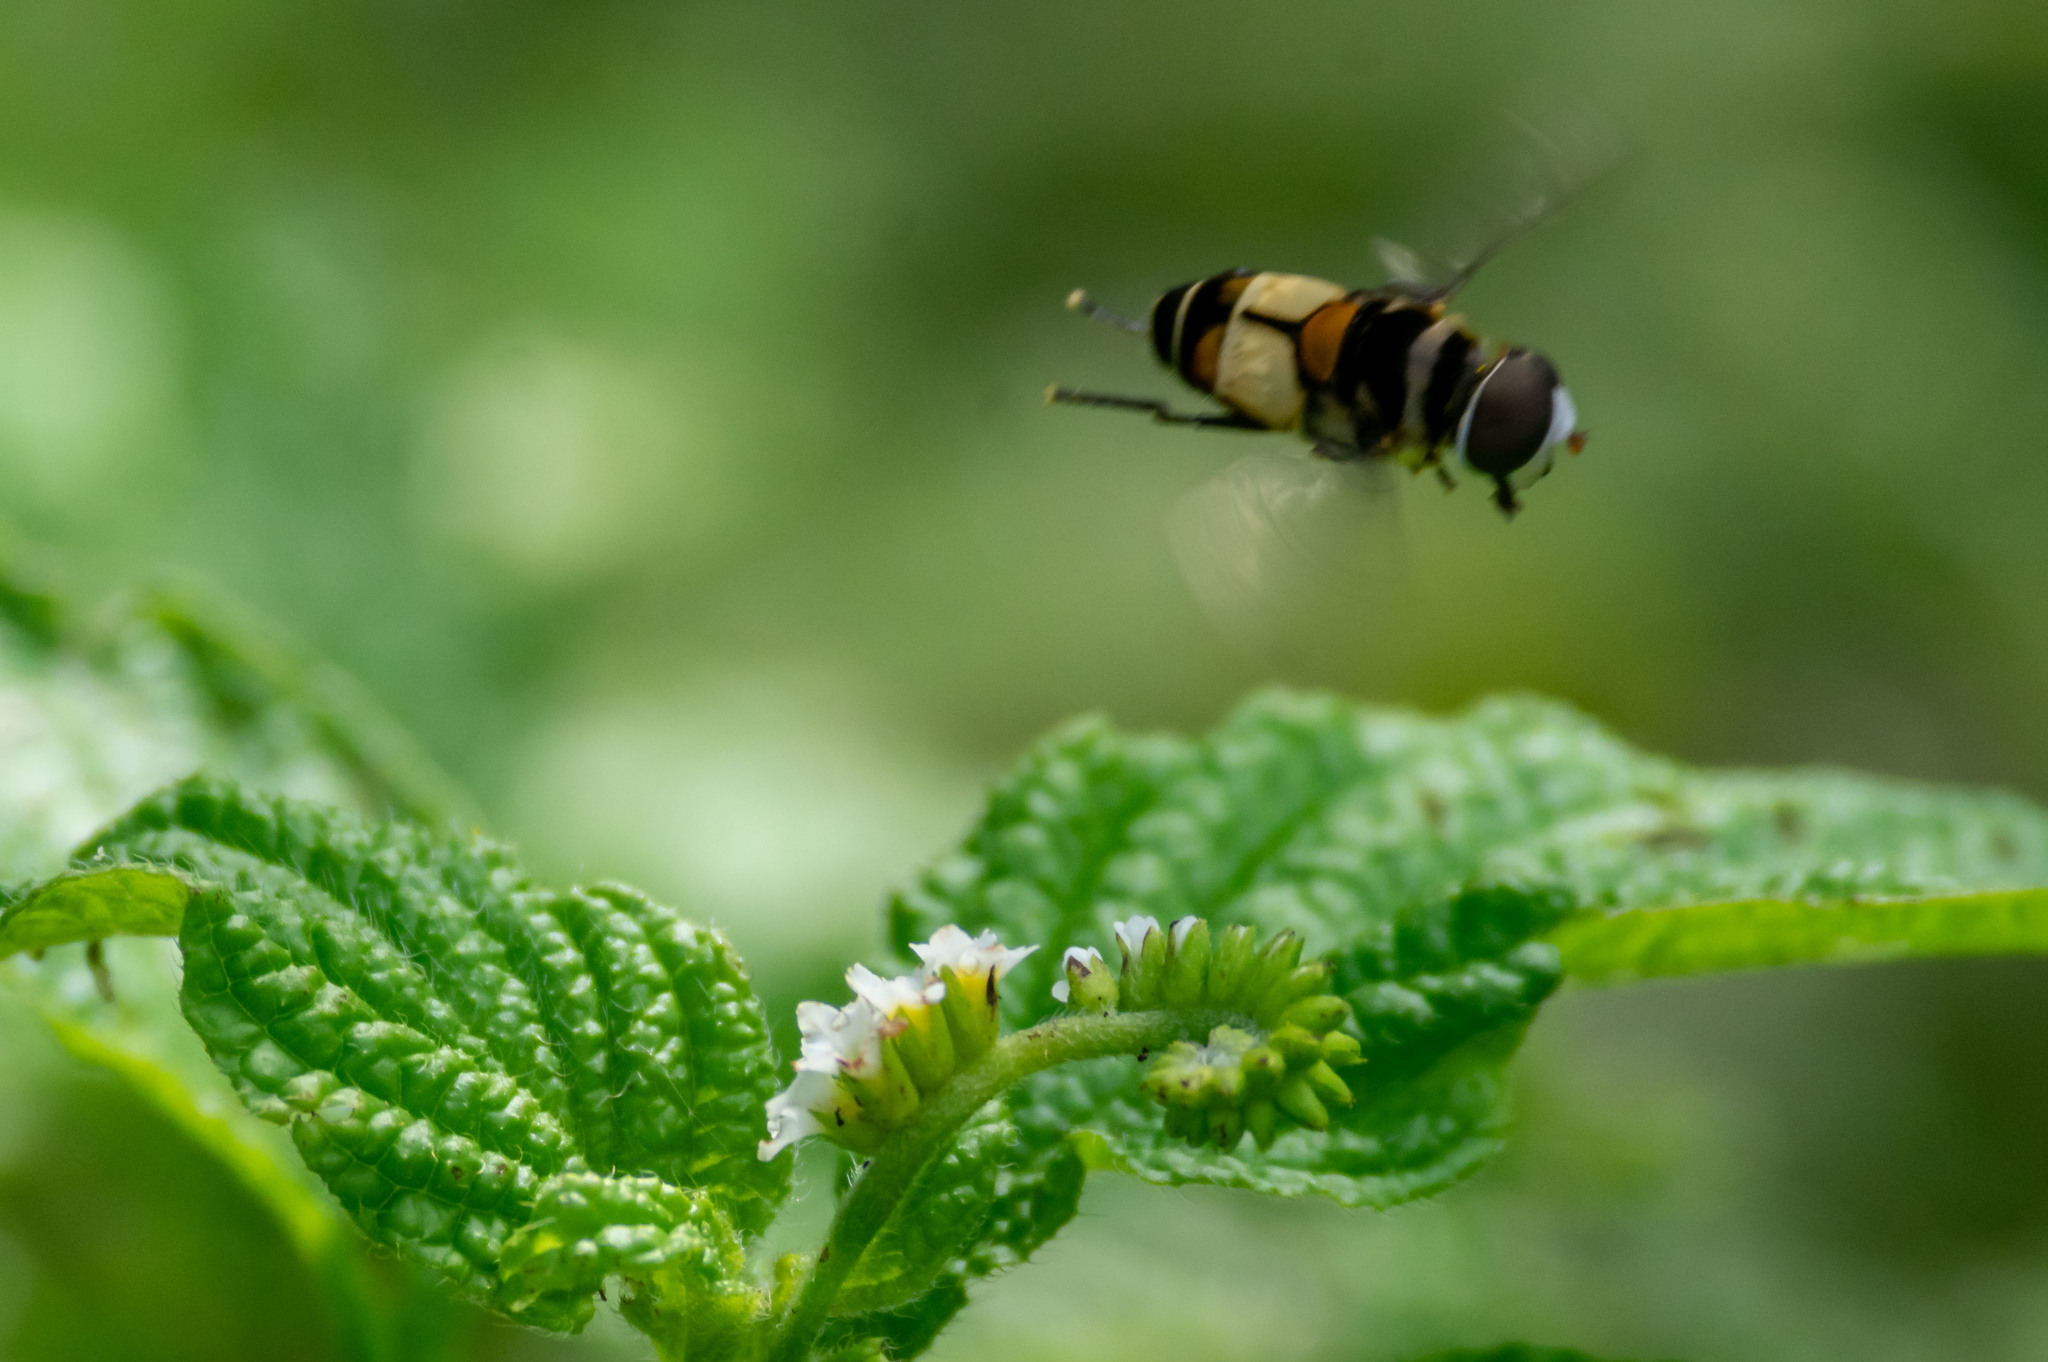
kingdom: Animalia
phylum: Arthropoda
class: Insecta
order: Diptera
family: Syrphidae
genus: Palpada
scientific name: Palpada albifrons
